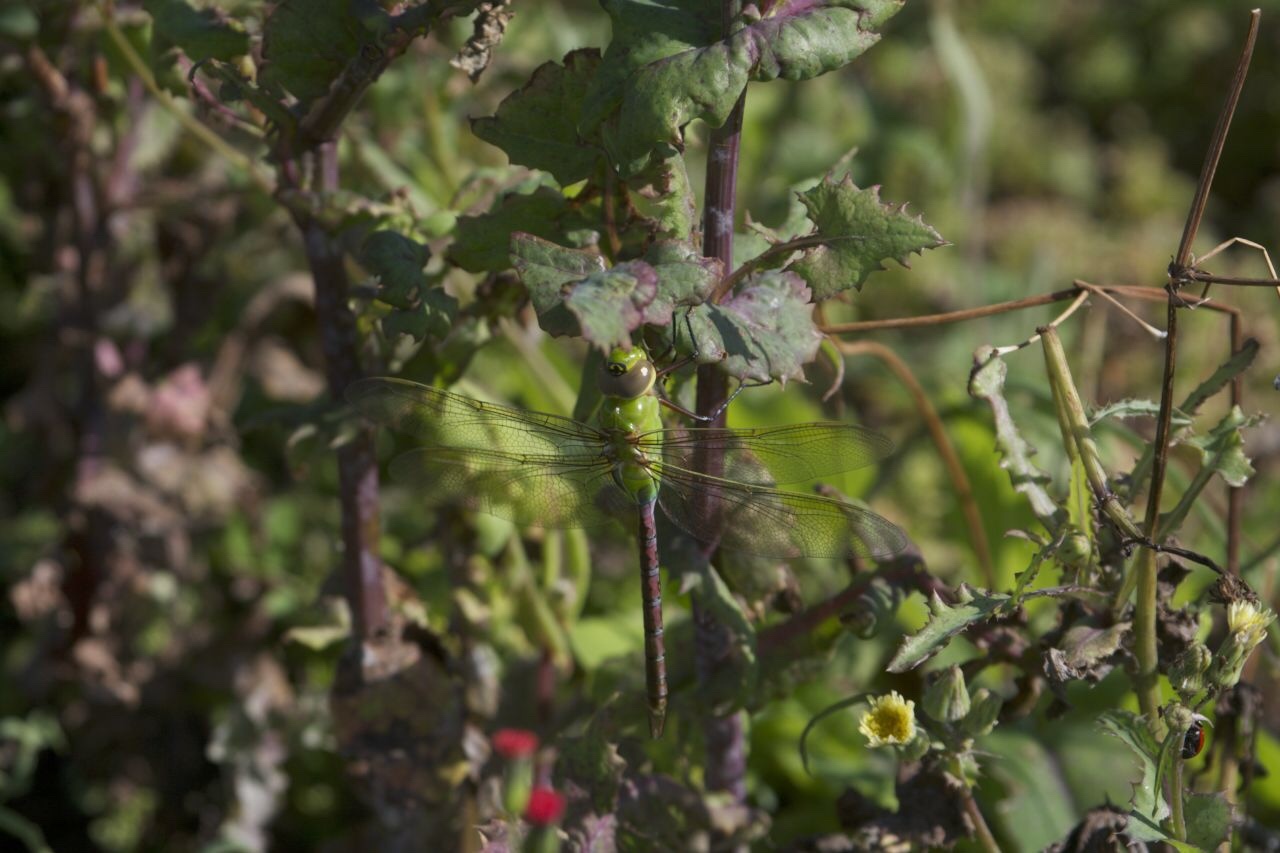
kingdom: Animalia
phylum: Arthropoda
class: Insecta
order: Odonata
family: Aeshnidae
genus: Anax
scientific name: Anax junius
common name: Common green darner
